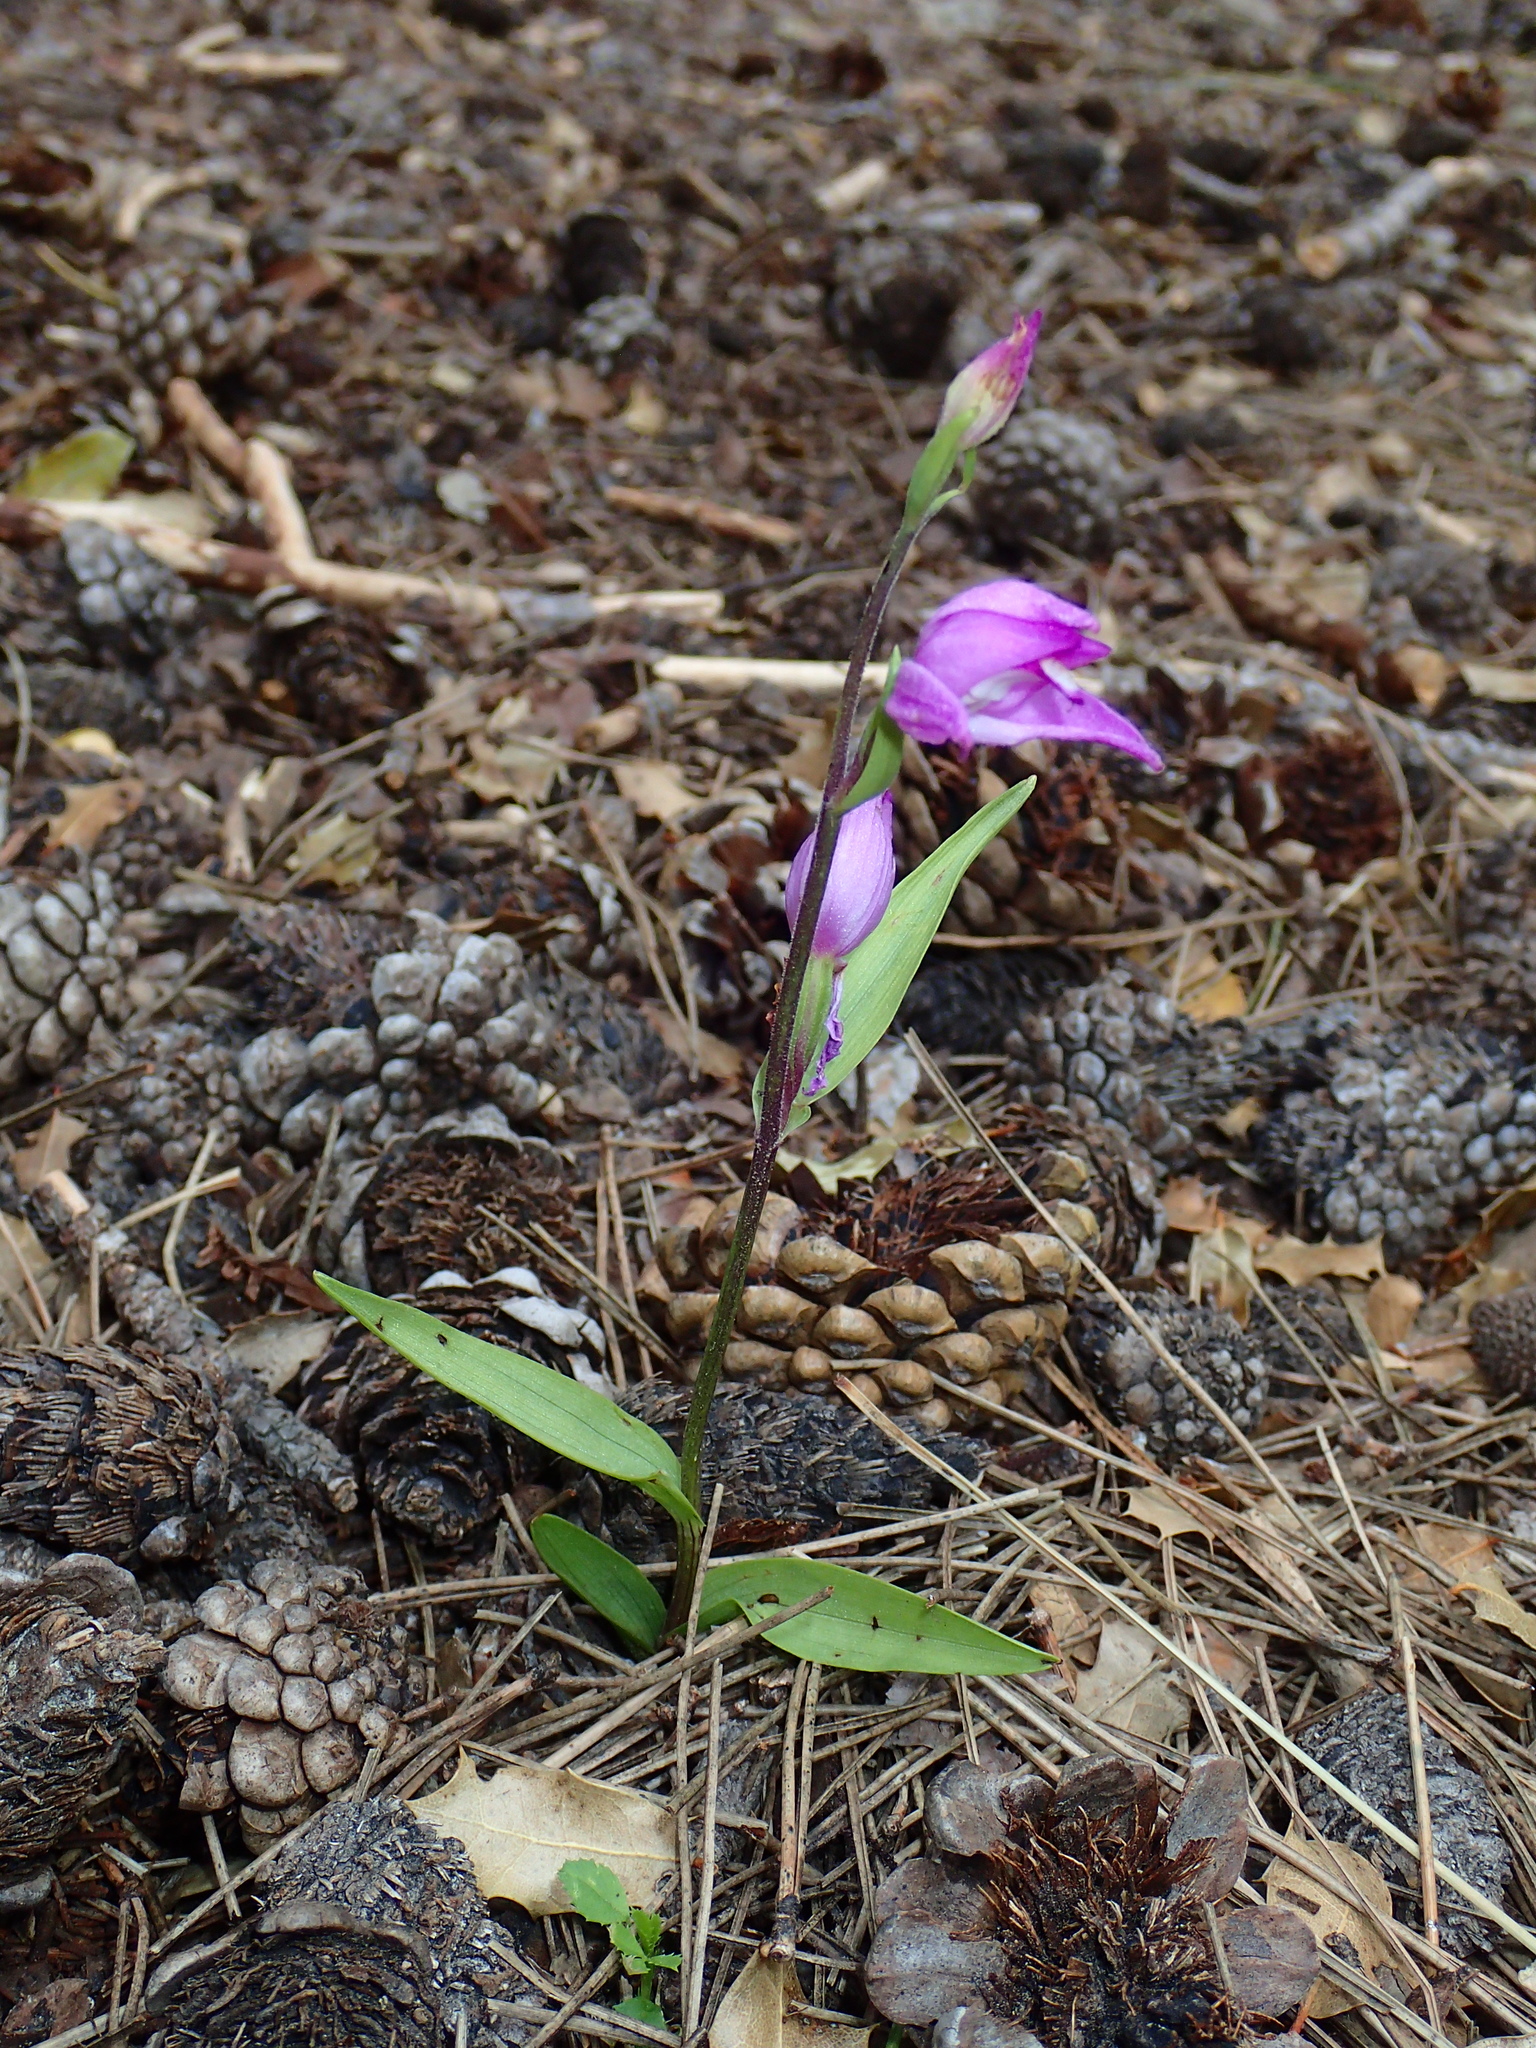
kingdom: Plantae
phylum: Tracheophyta
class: Liliopsida
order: Asparagales
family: Orchidaceae
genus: Cephalanthera
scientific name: Cephalanthera rubra
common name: Red helleborine
